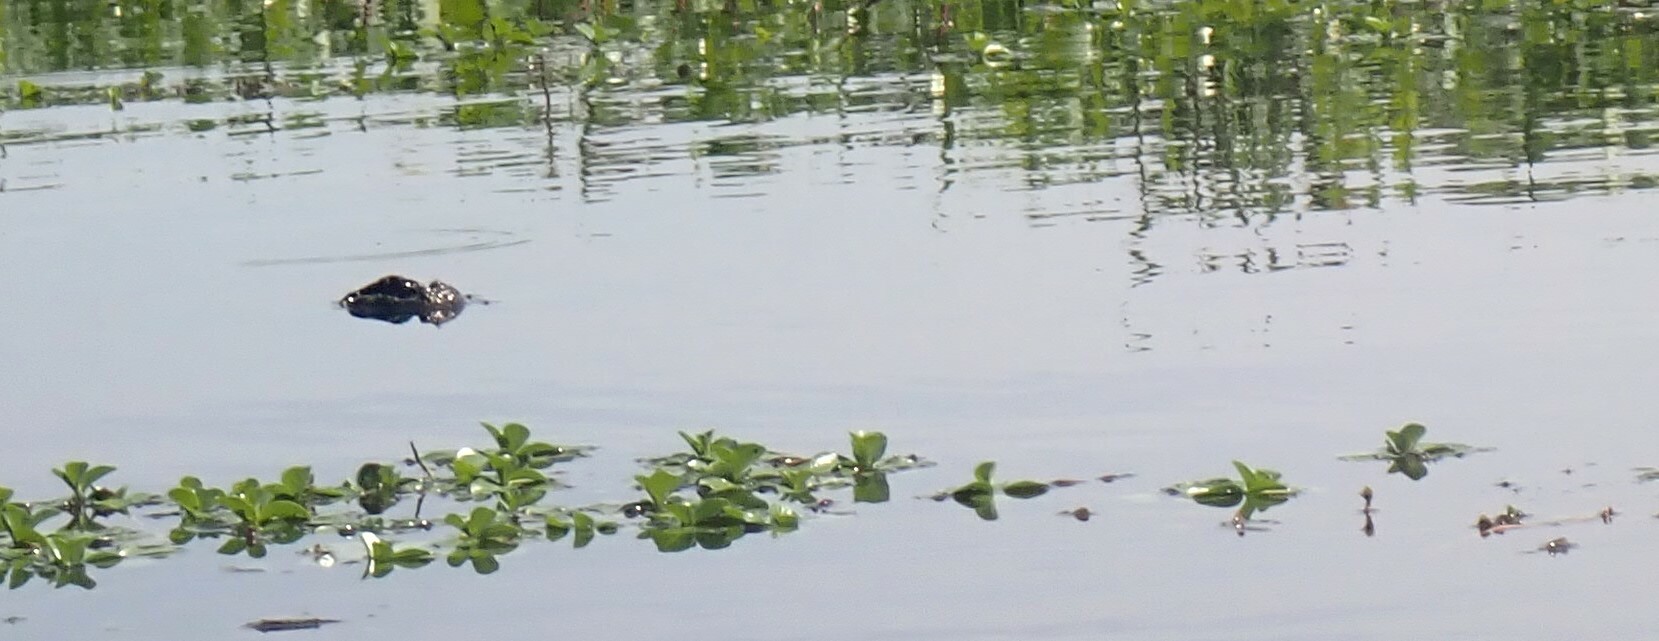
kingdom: Animalia
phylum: Chordata
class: Crocodylia
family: Alligatoridae
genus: Alligator
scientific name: Alligator mississippiensis
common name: American alligator
